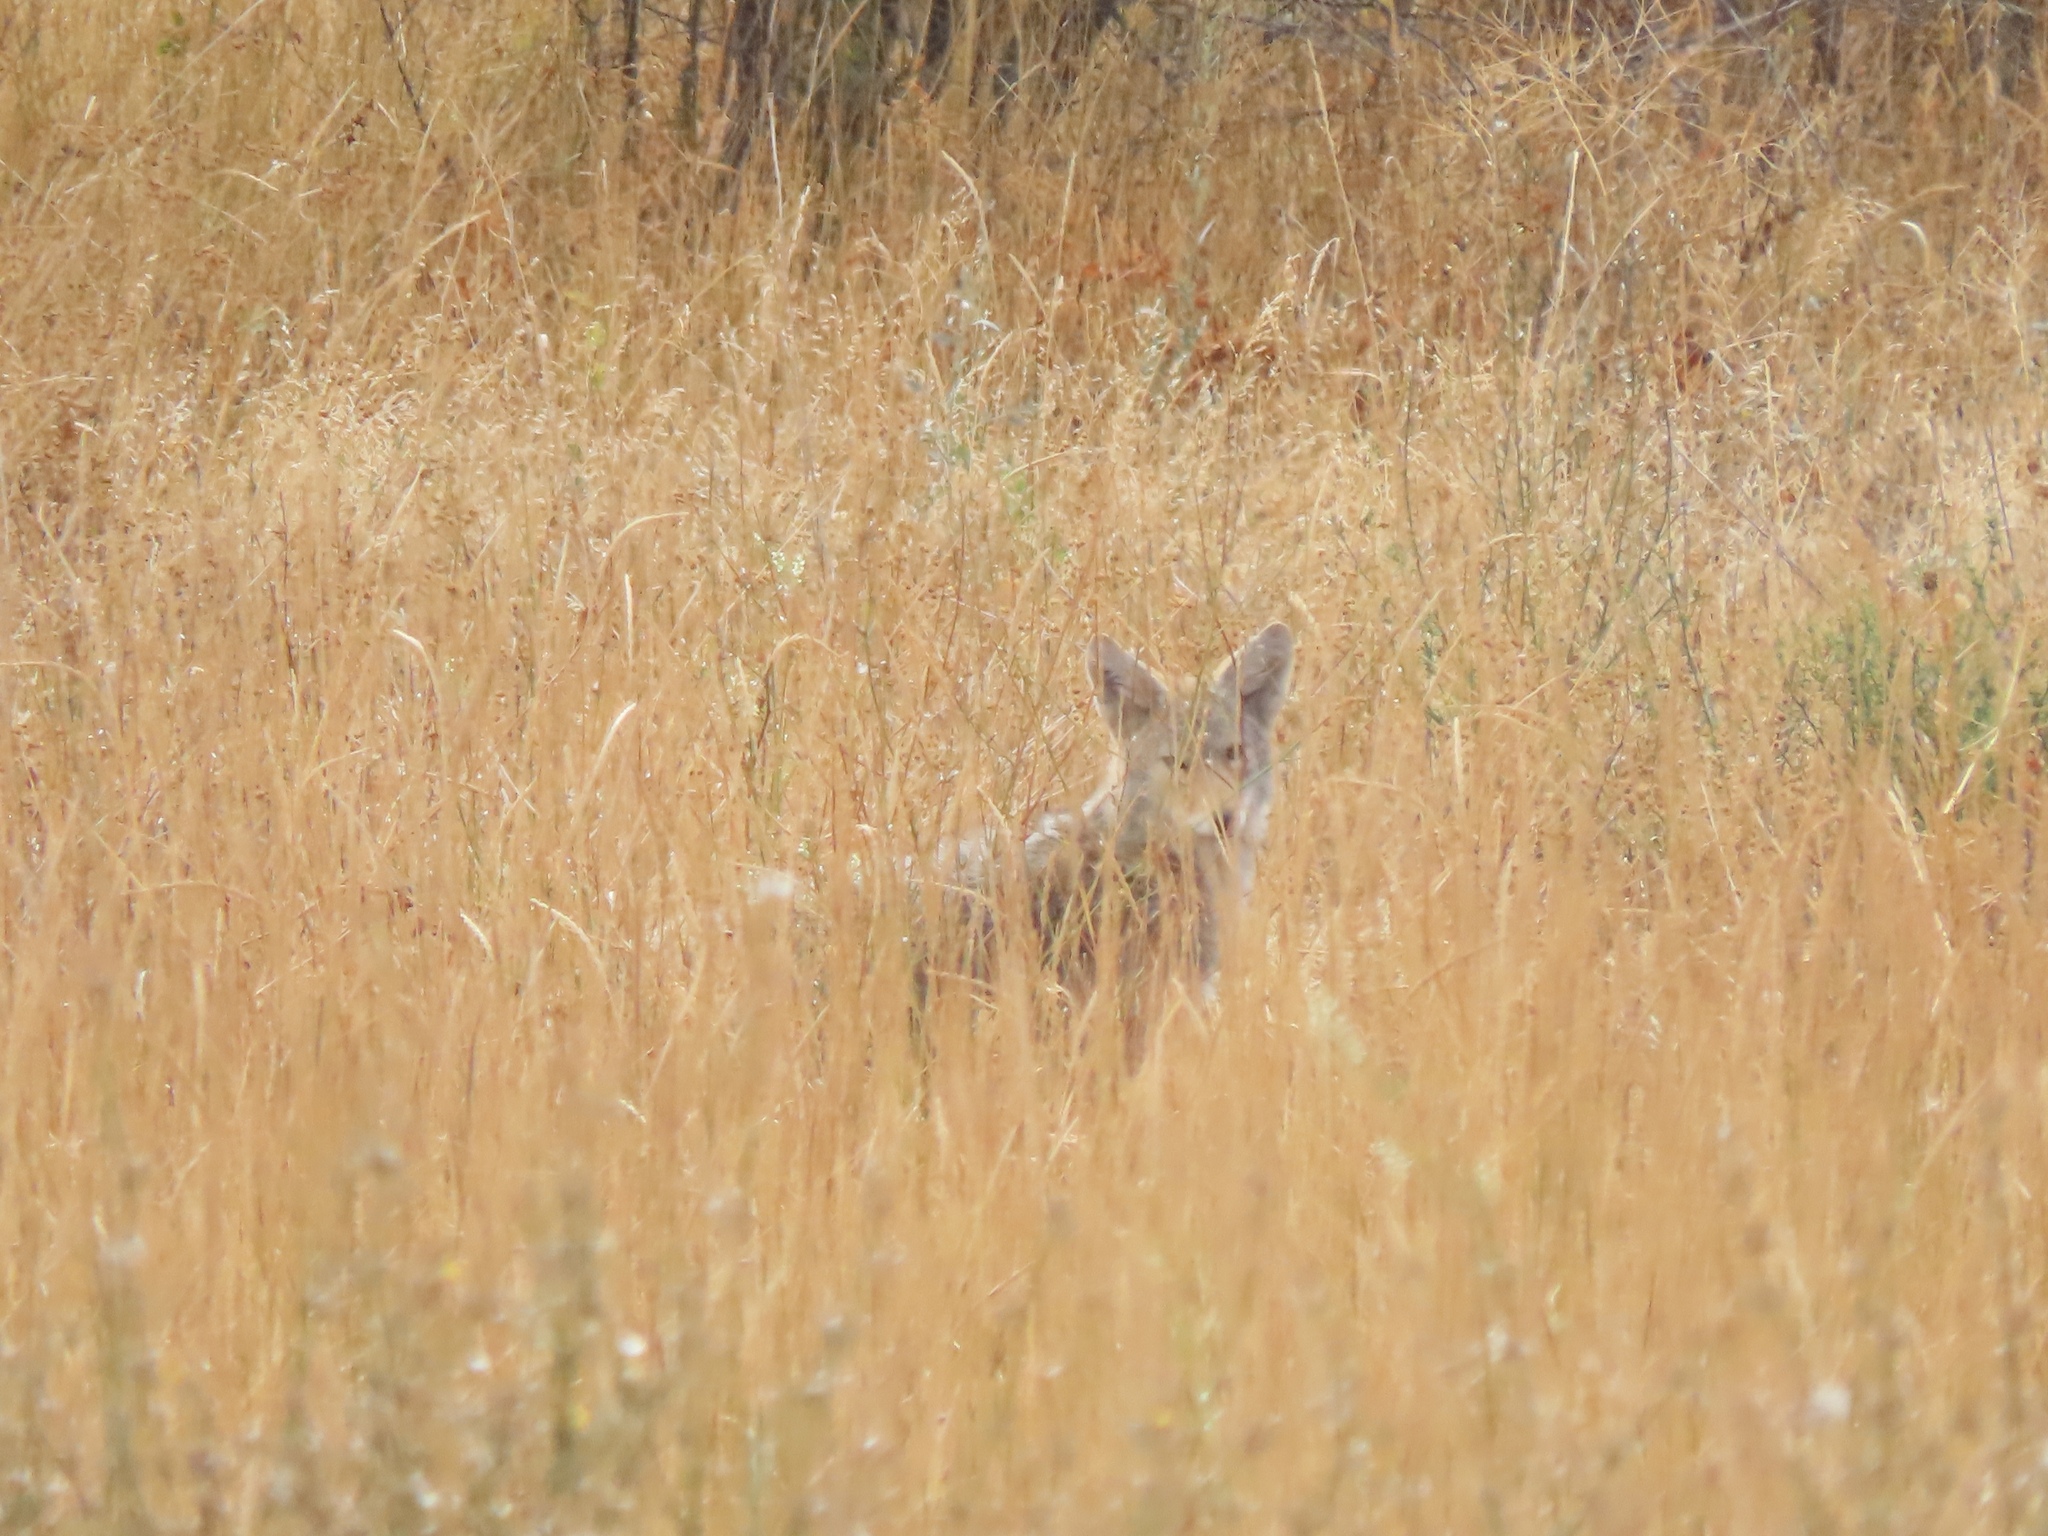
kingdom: Animalia
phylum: Chordata
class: Mammalia
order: Carnivora
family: Canidae
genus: Canis
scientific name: Canis latrans
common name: Coyote
